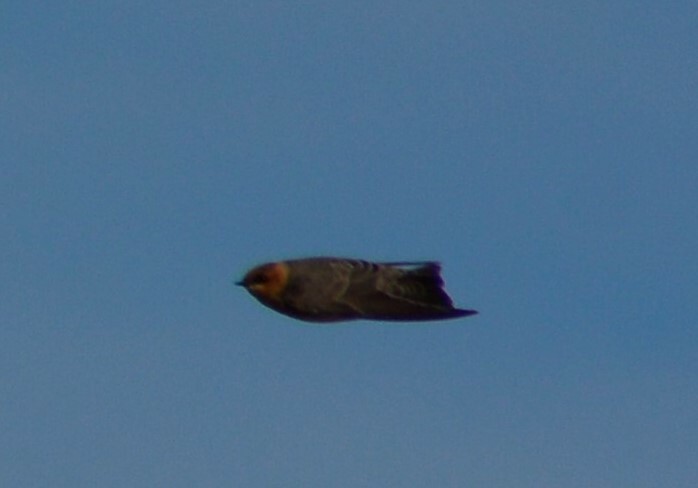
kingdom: Animalia
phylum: Chordata
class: Aves
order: Passeriformes
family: Hirundinidae
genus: Alopochelidon
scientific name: Alopochelidon fucata
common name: Tawny-headed swallow
